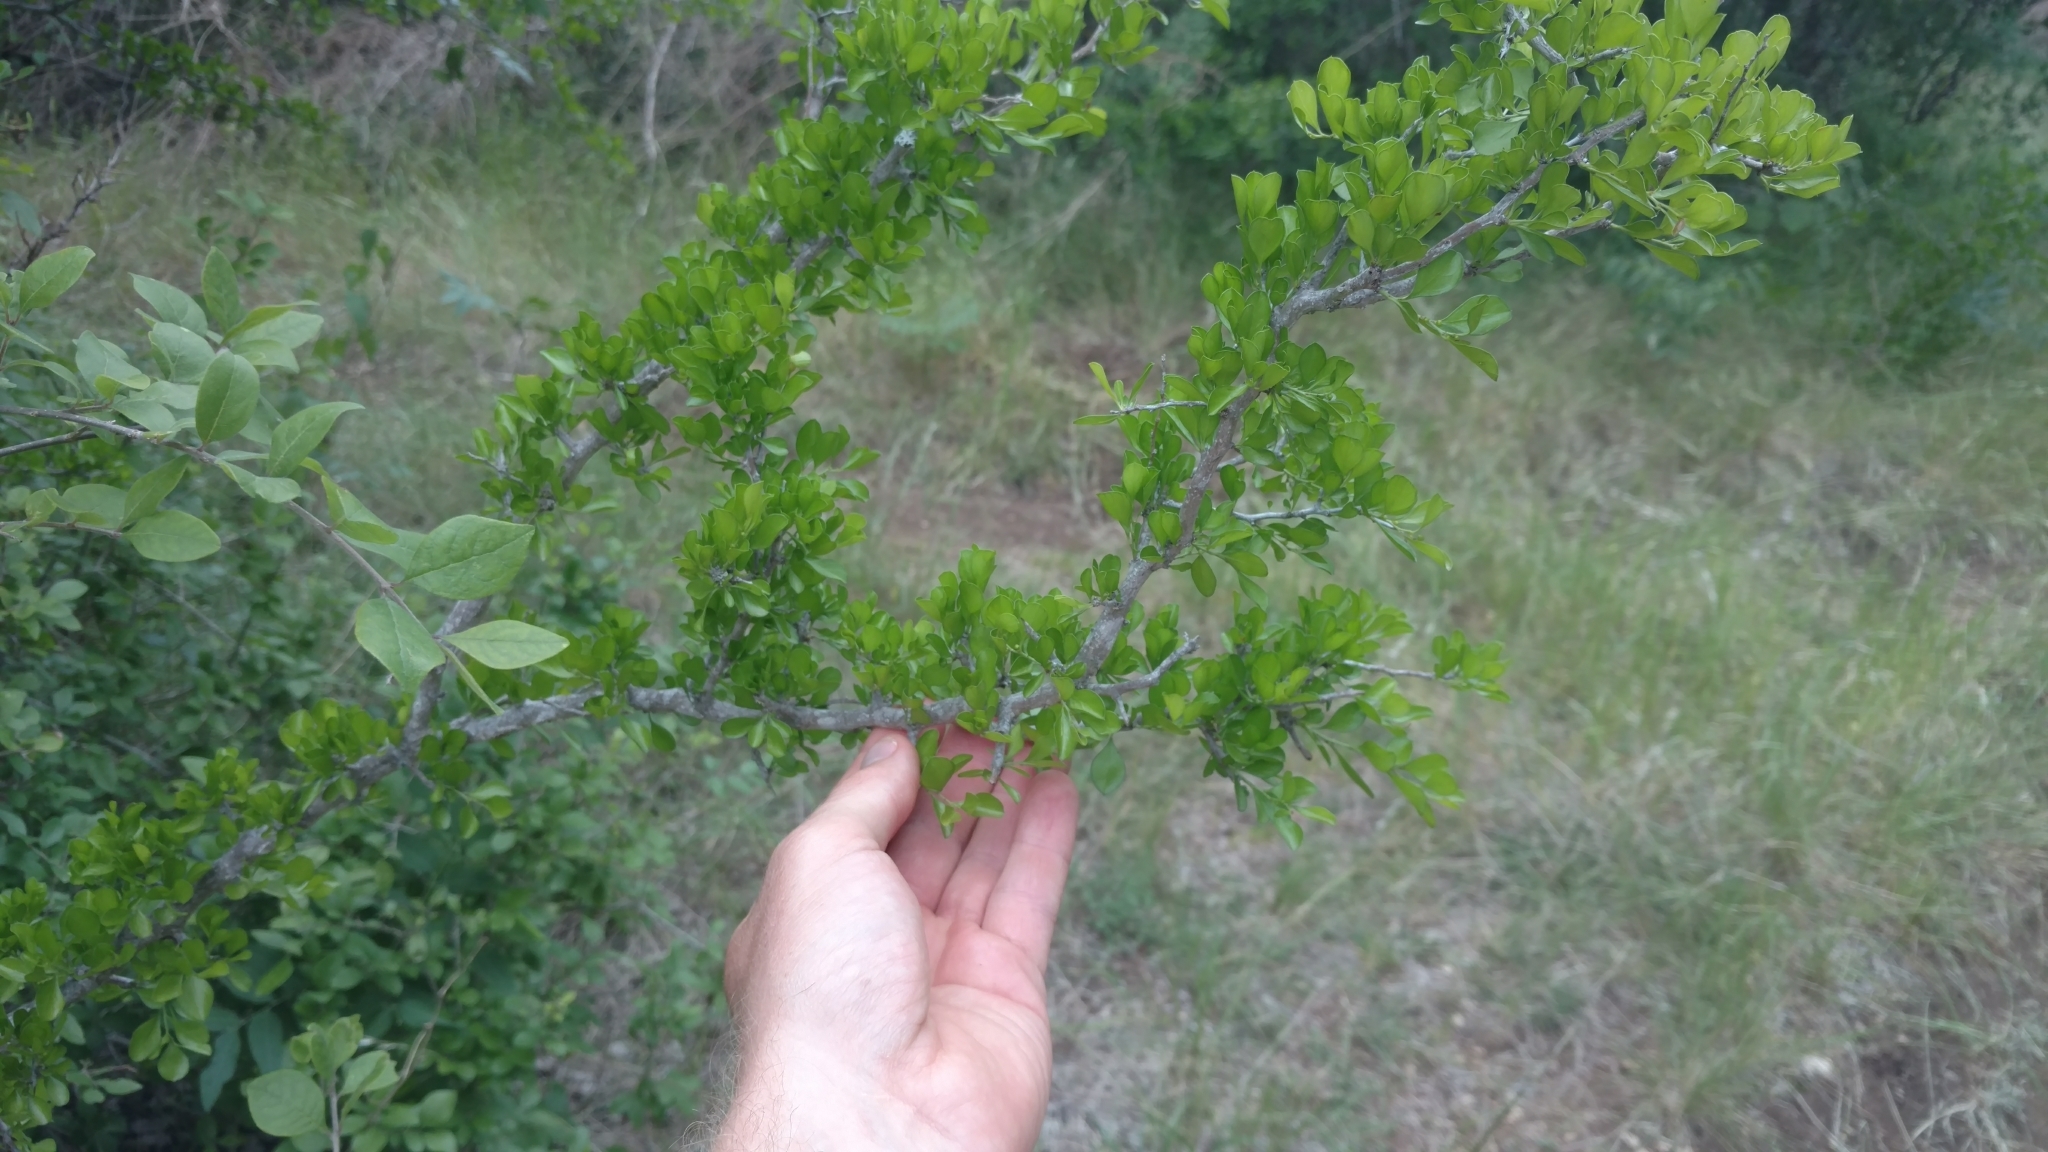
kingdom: Plantae
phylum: Tracheophyta
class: Magnoliopsida
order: Rosales
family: Rhamnaceae
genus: Condalia
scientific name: Condalia hookeri
